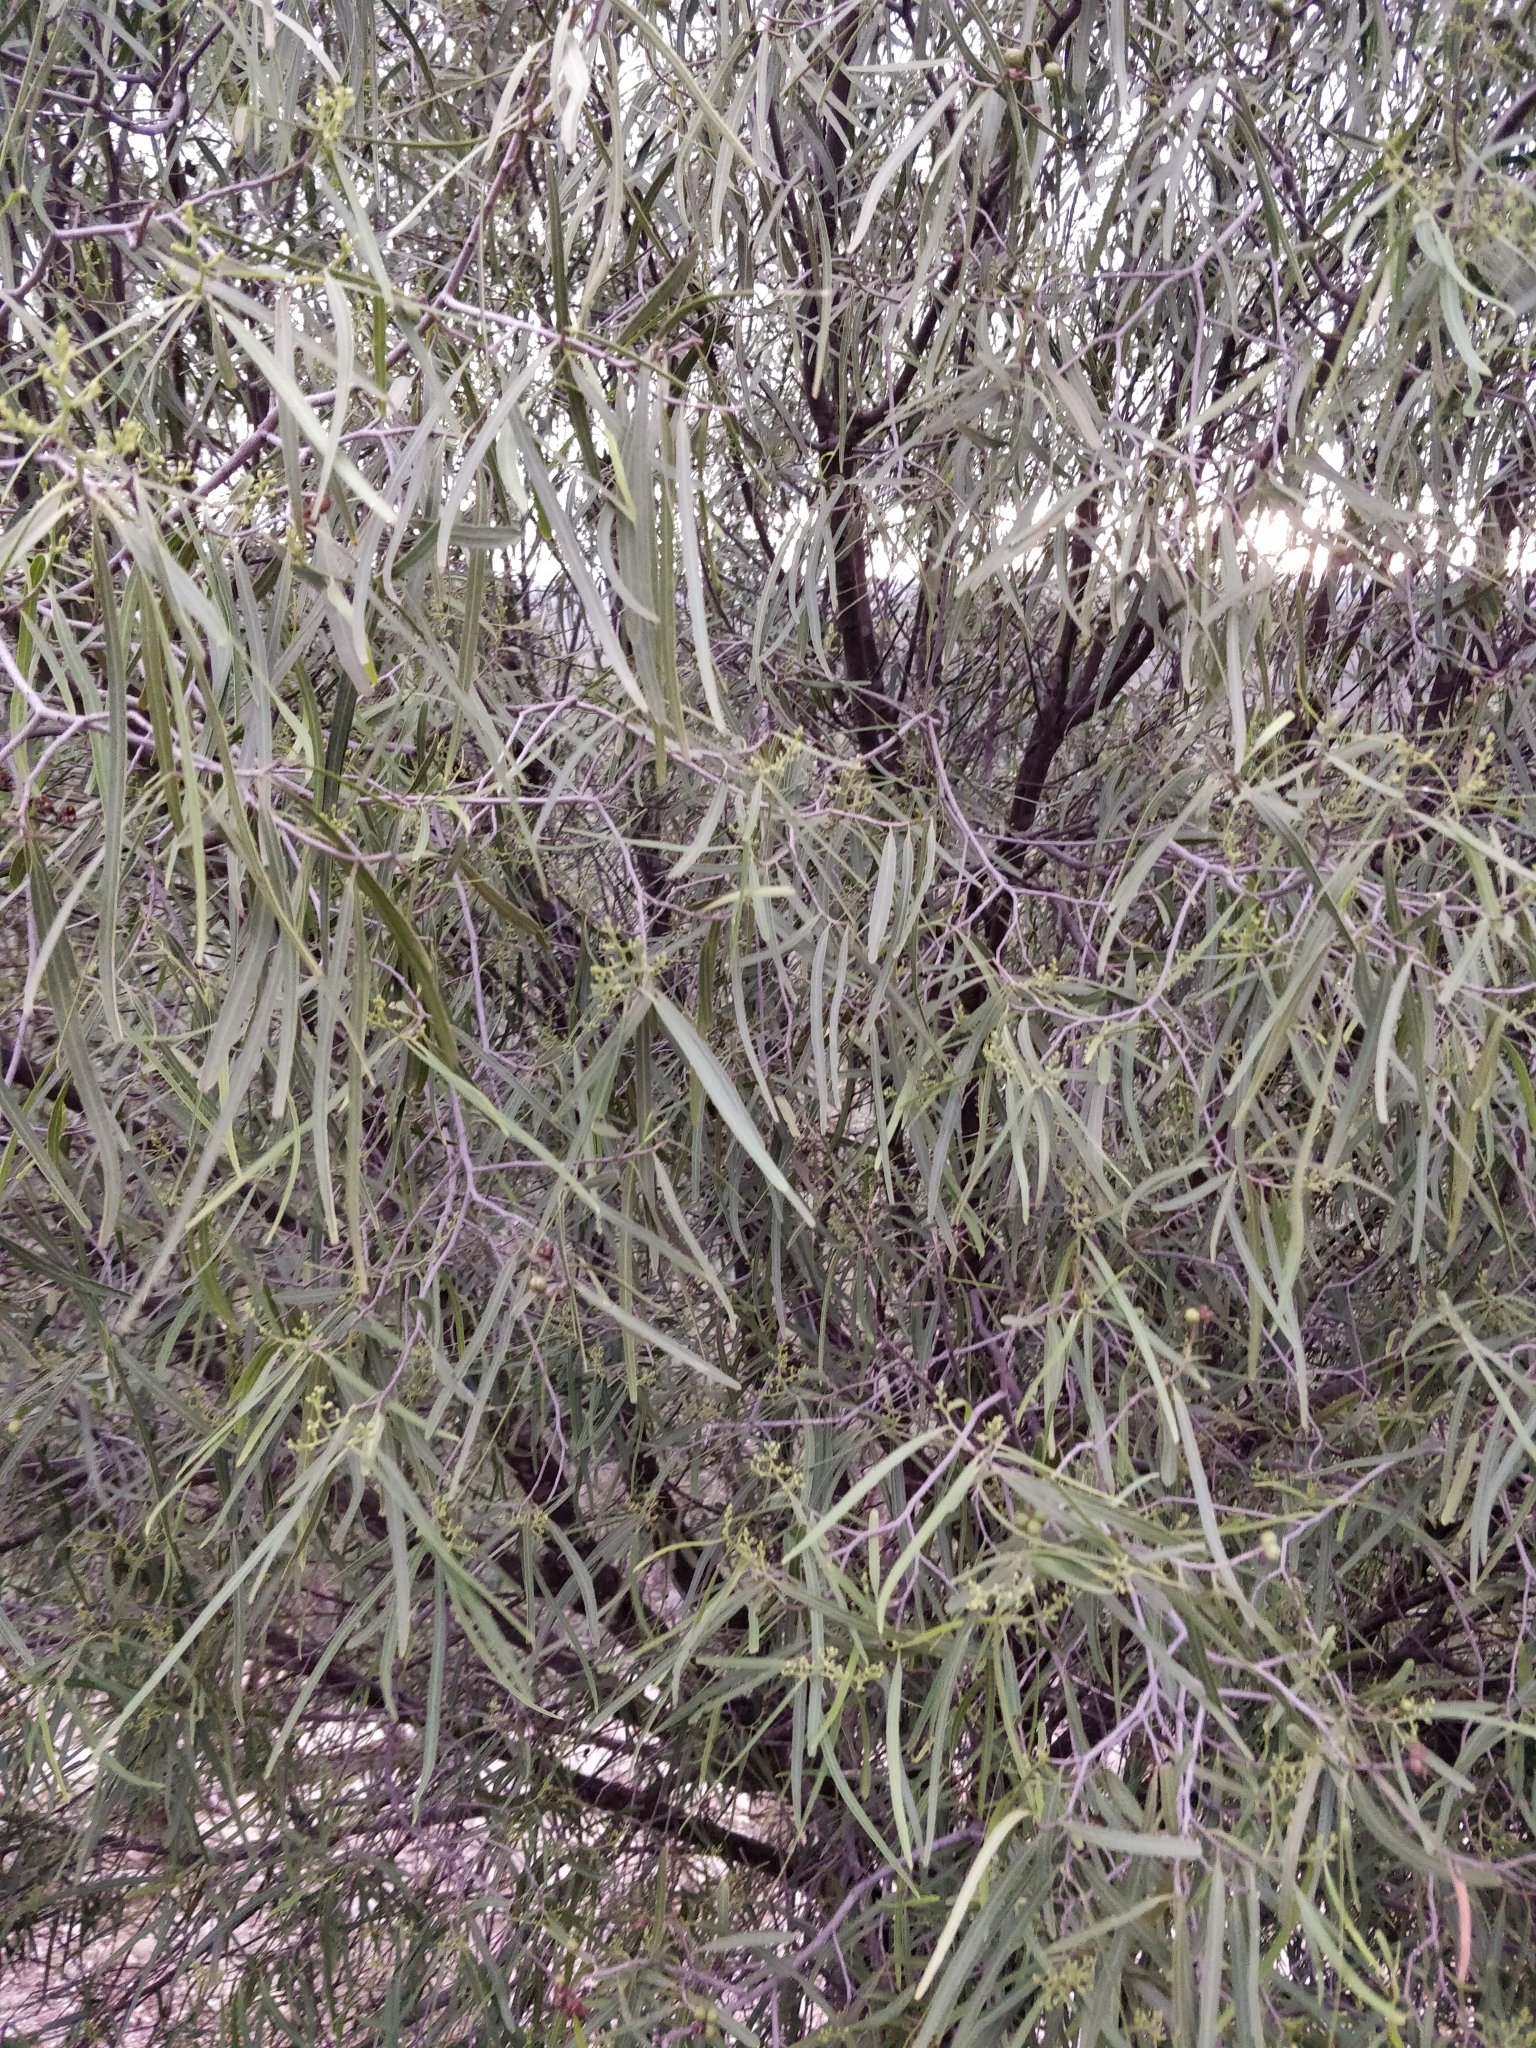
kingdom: Plantae
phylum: Tracheophyta
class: Magnoliopsida
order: Sapindales
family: Rutaceae
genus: Geijera
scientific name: Geijera parviflora
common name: Wilga
